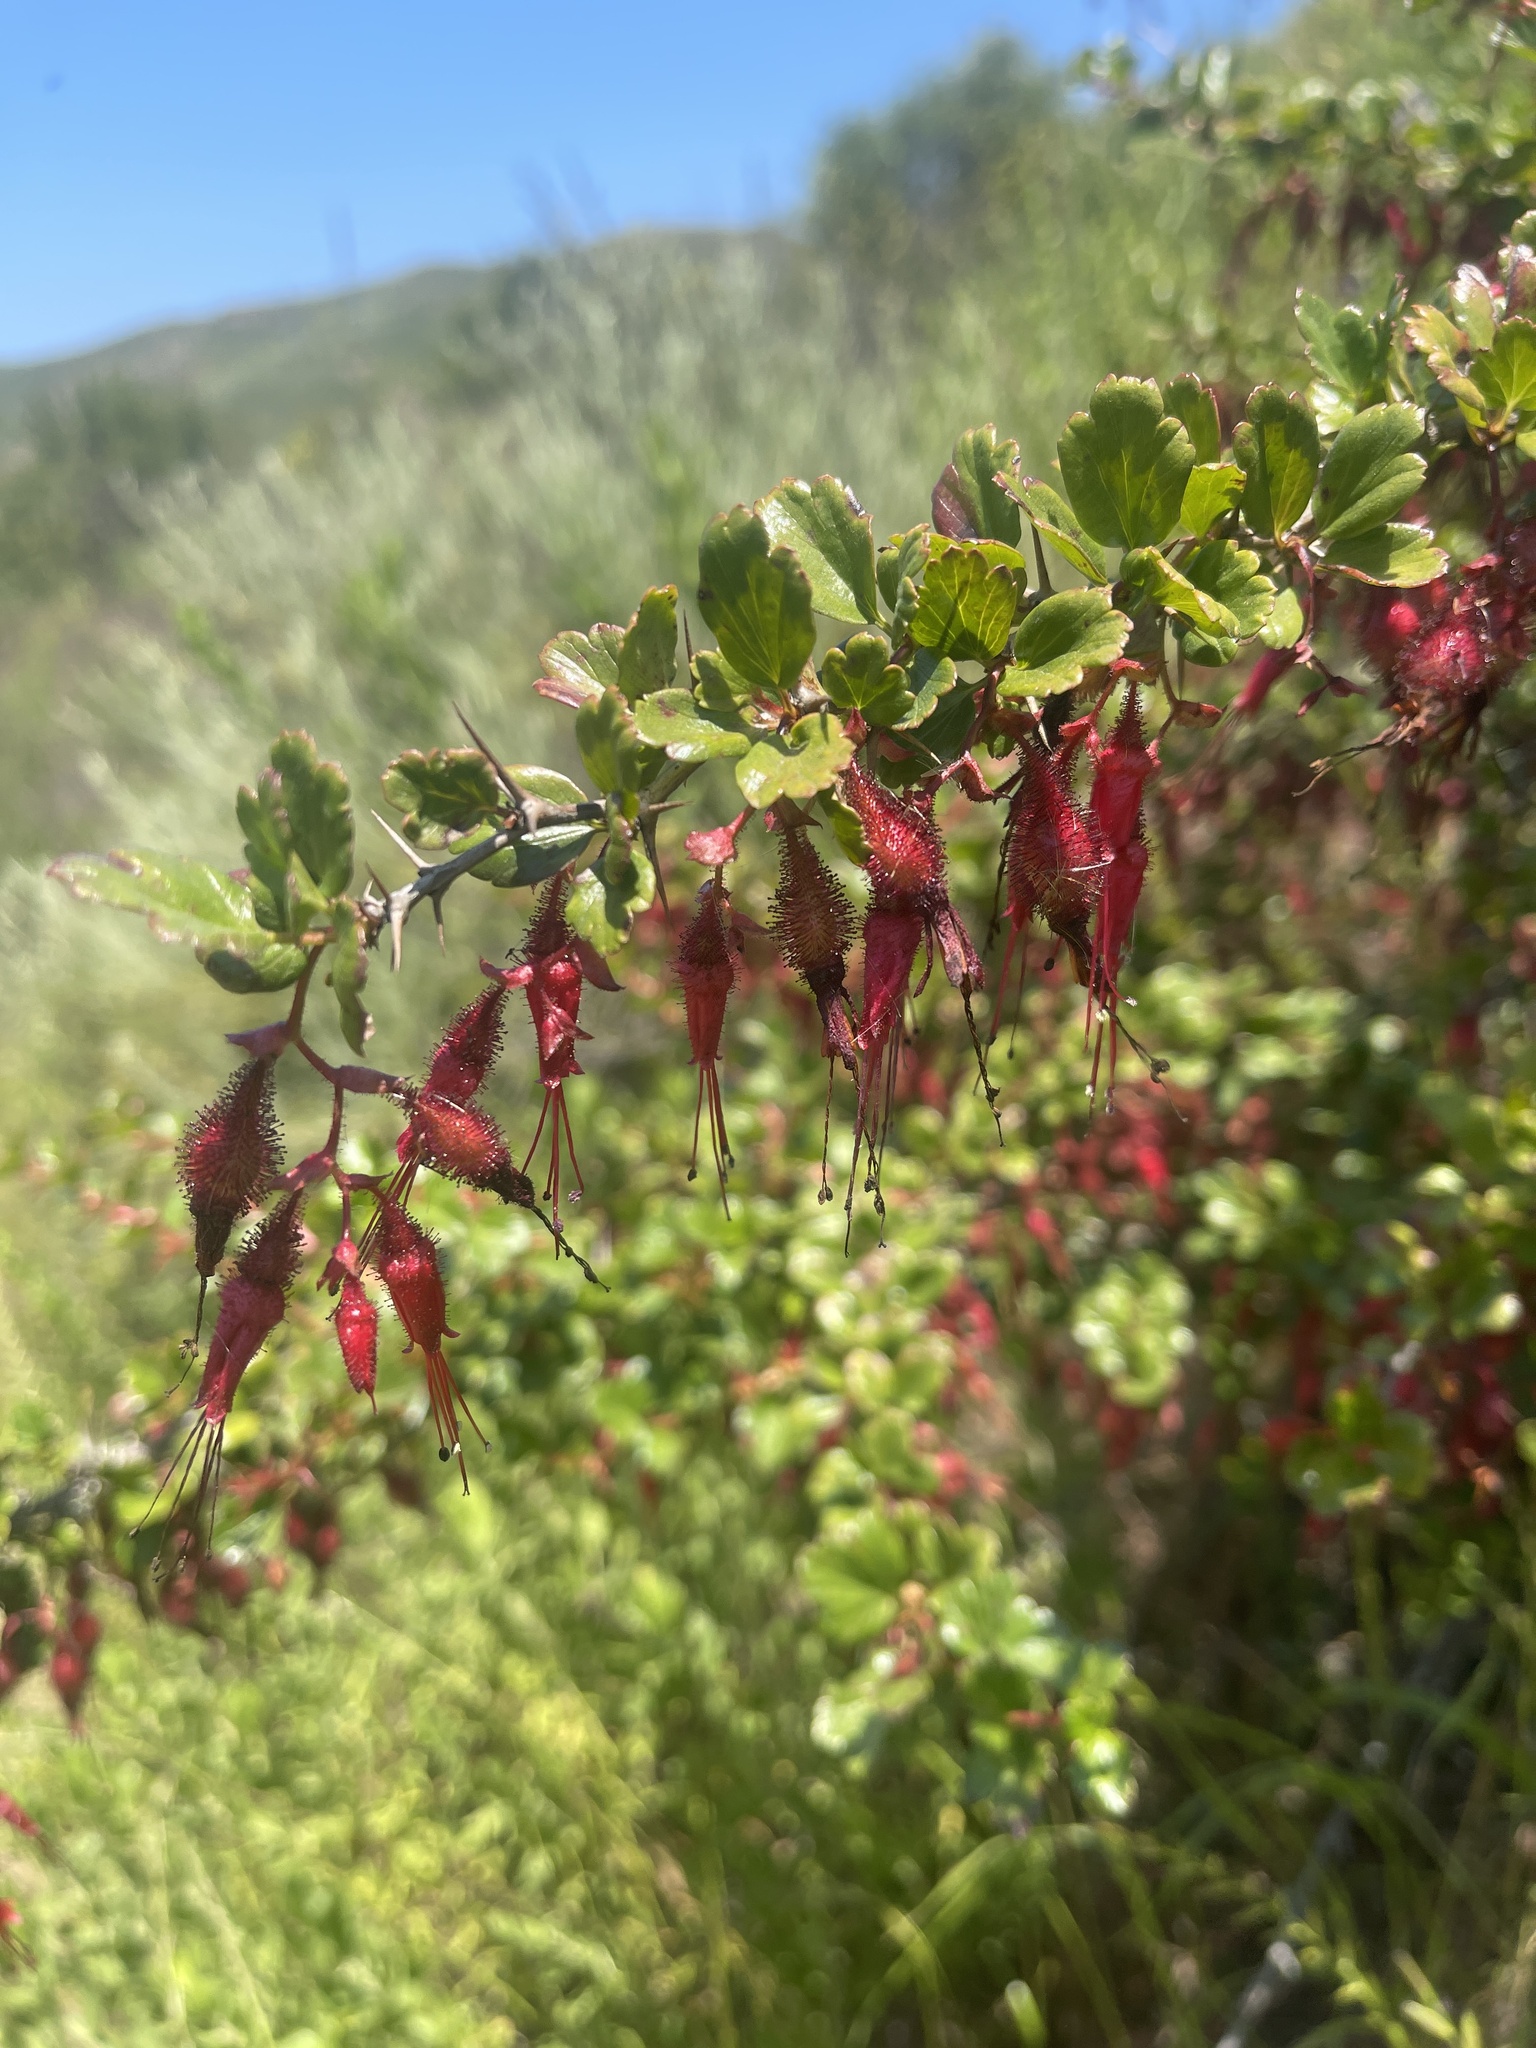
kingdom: Plantae
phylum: Tracheophyta
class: Magnoliopsida
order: Saxifragales
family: Grossulariaceae
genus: Ribes
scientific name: Ribes speciosum
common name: Fuchsia-flower gooseberry
